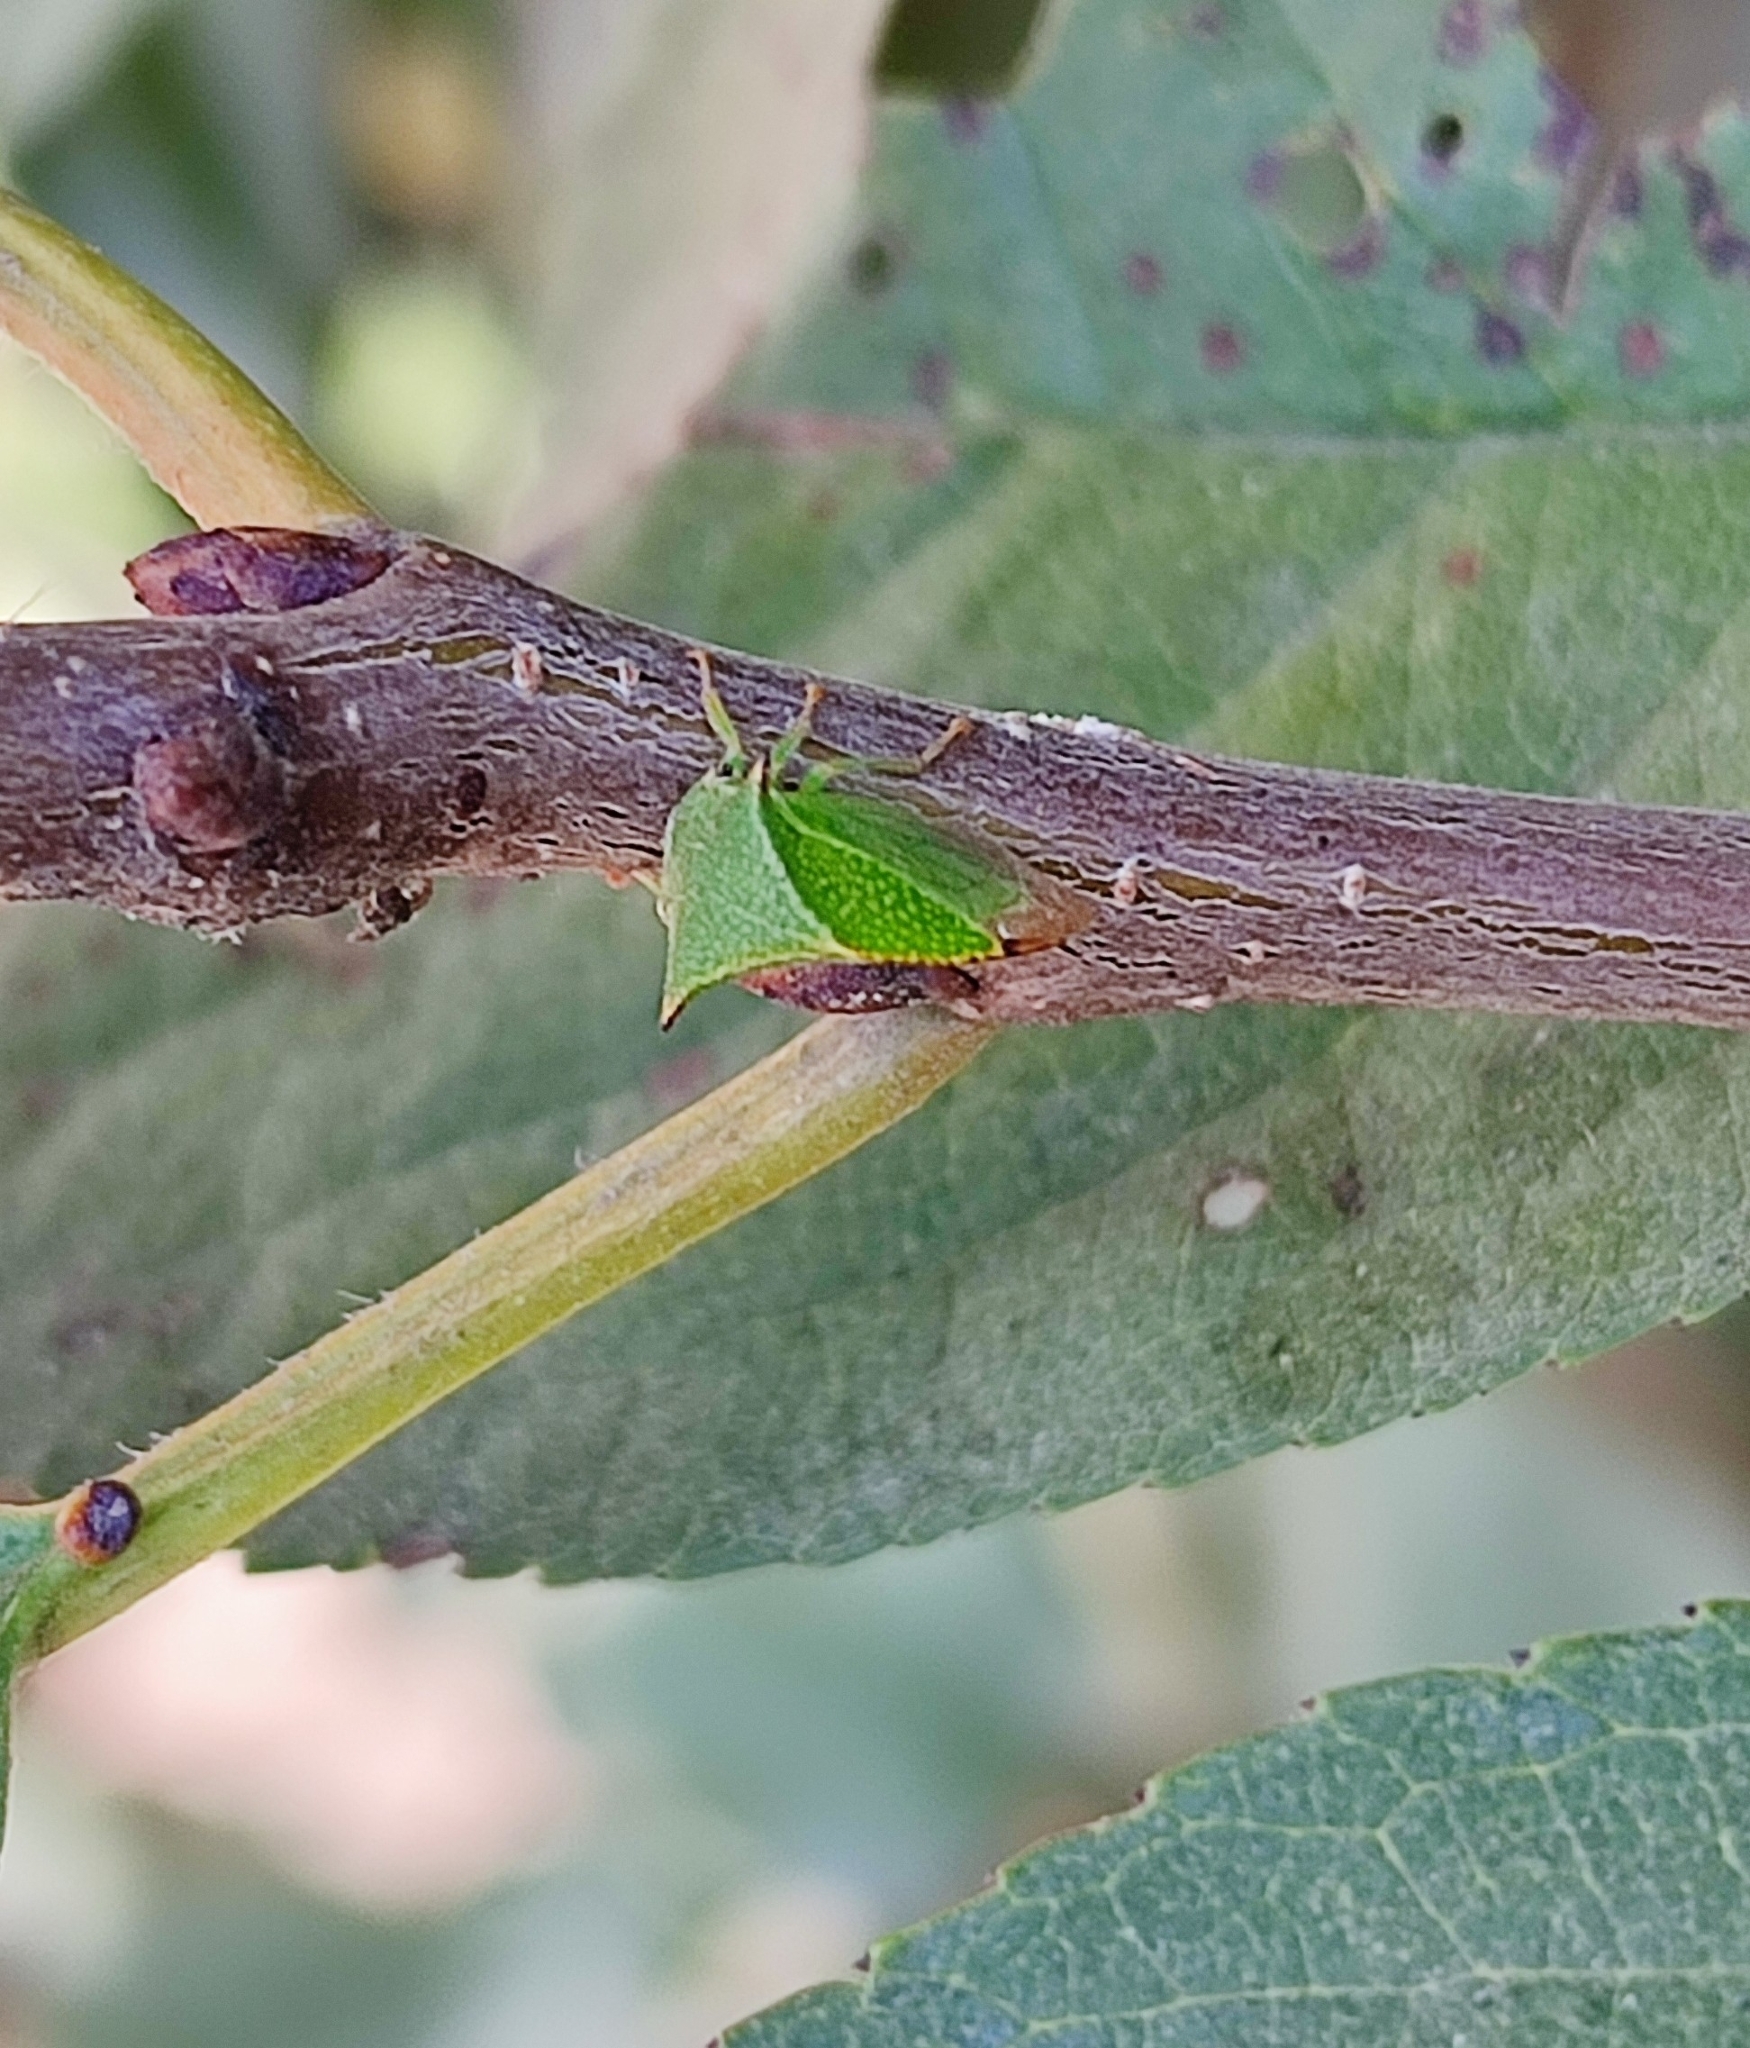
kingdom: Animalia
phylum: Arthropoda
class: Insecta
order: Hemiptera
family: Membracidae
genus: Stictocephala
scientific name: Stictocephala bisonia
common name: American buffalo treehopper
